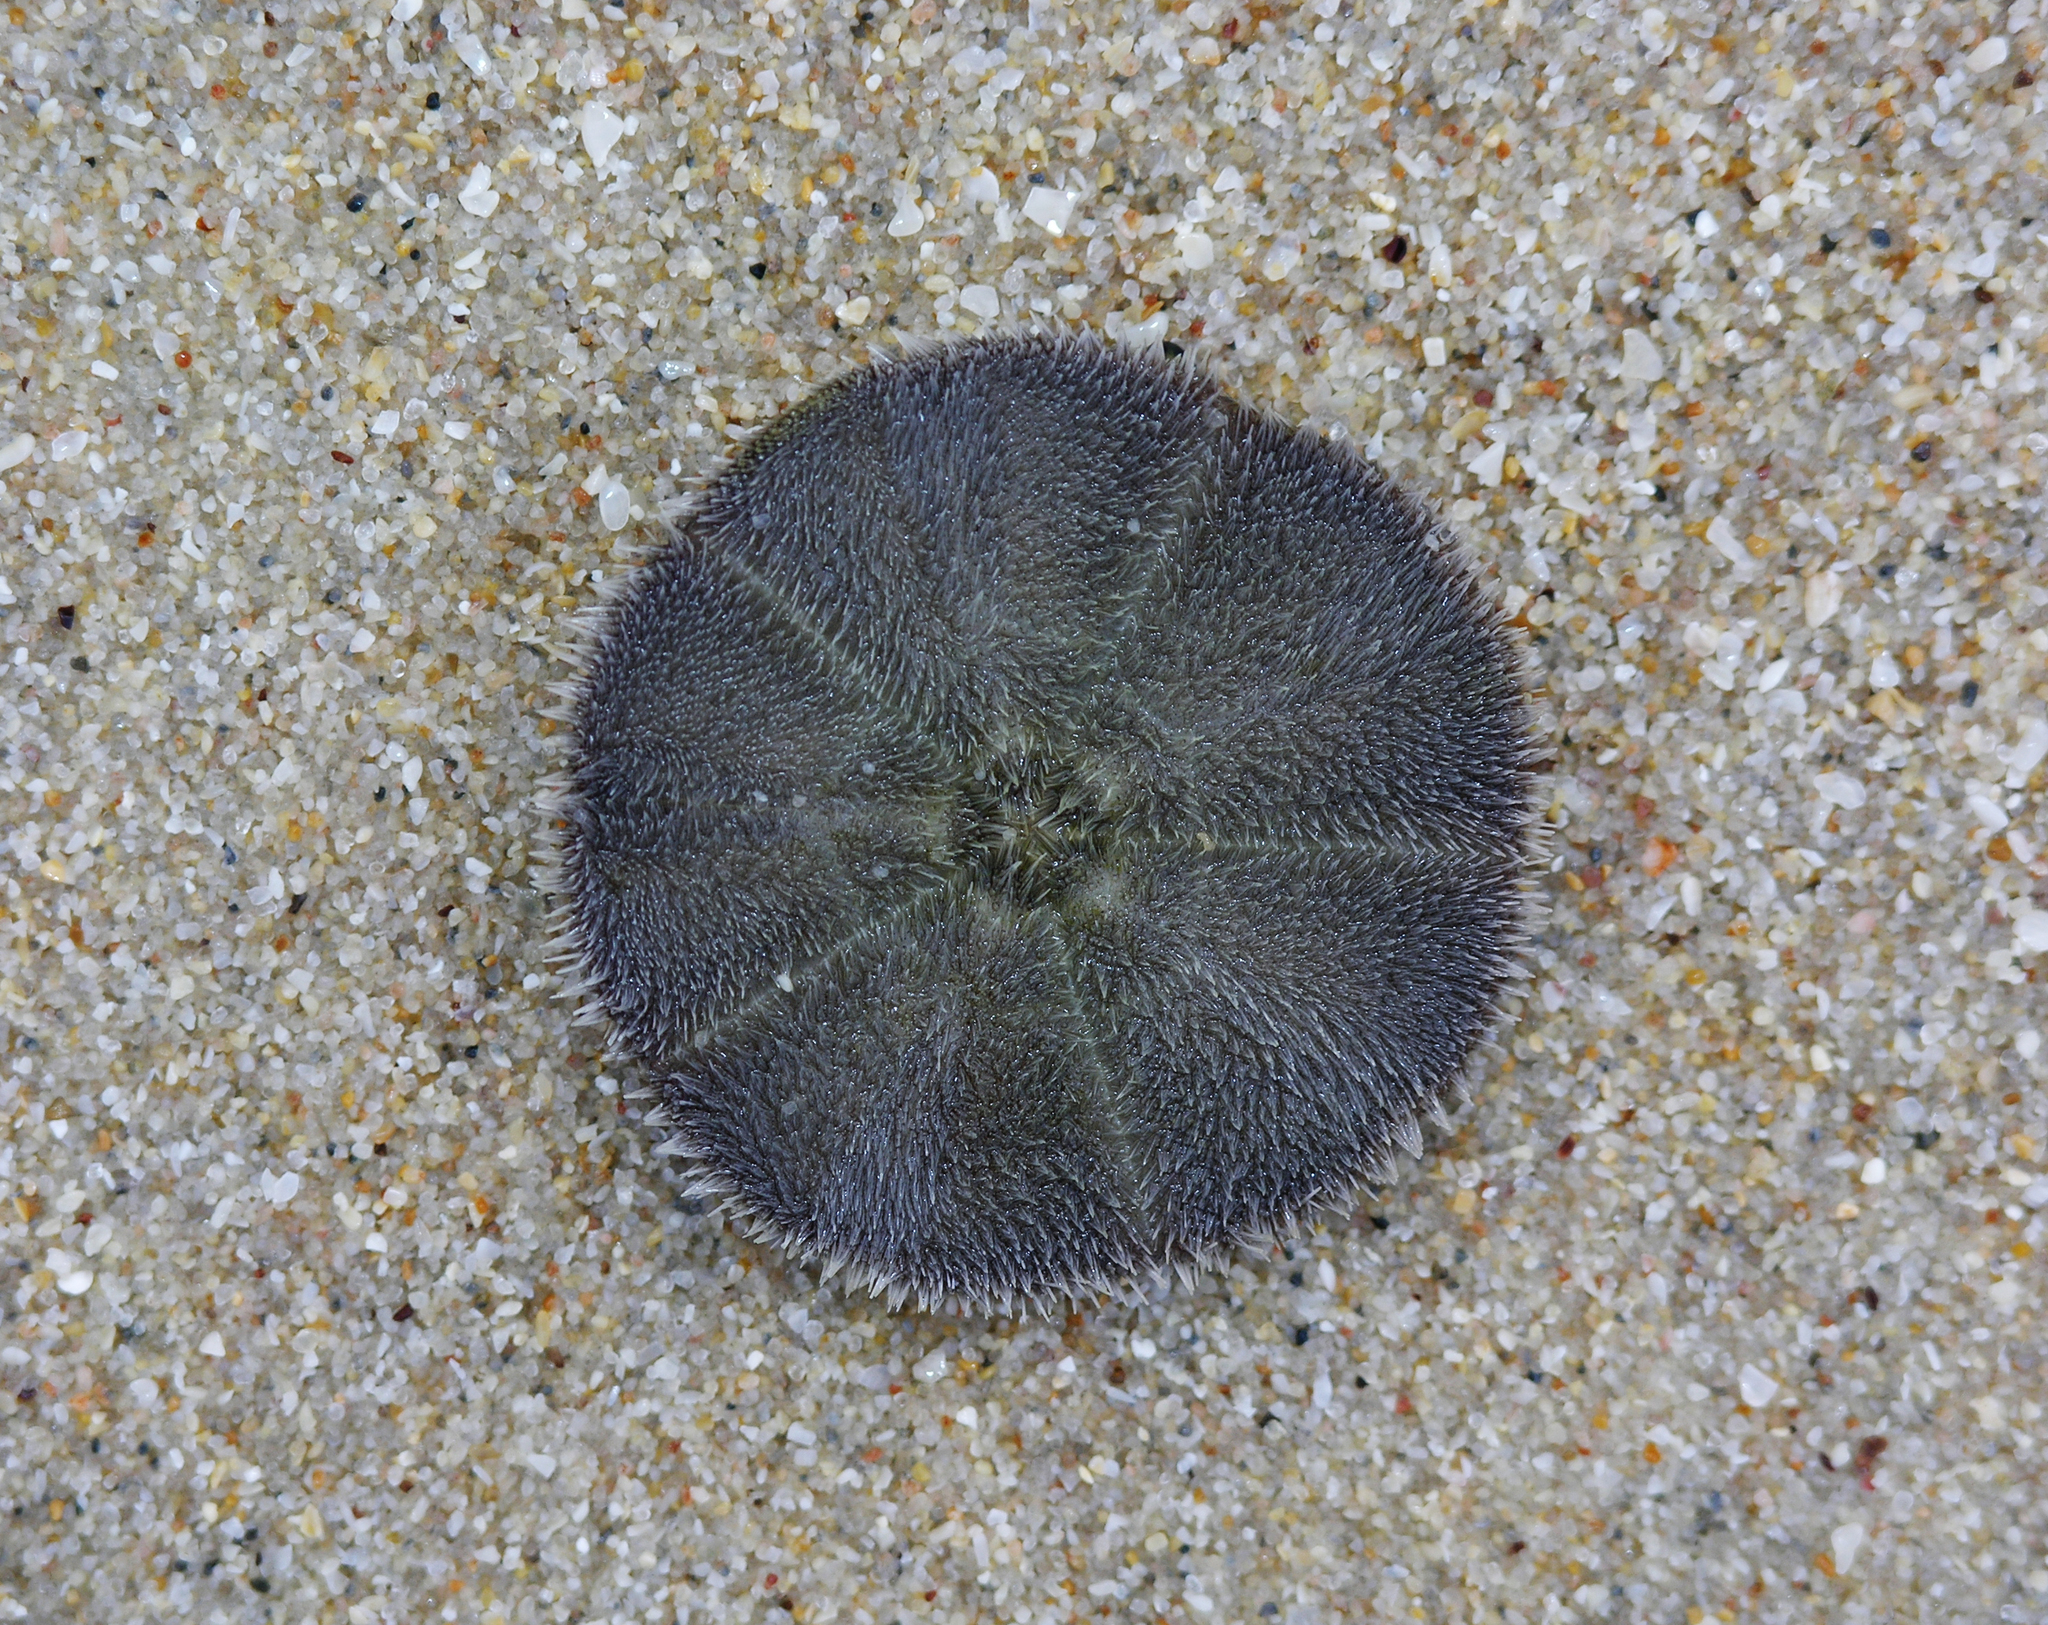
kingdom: Animalia
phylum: Echinodermata
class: Echinoidea
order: Clypeasteroida
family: Clypeasteridae
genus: Arachnoides
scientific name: Arachnoides placenta
